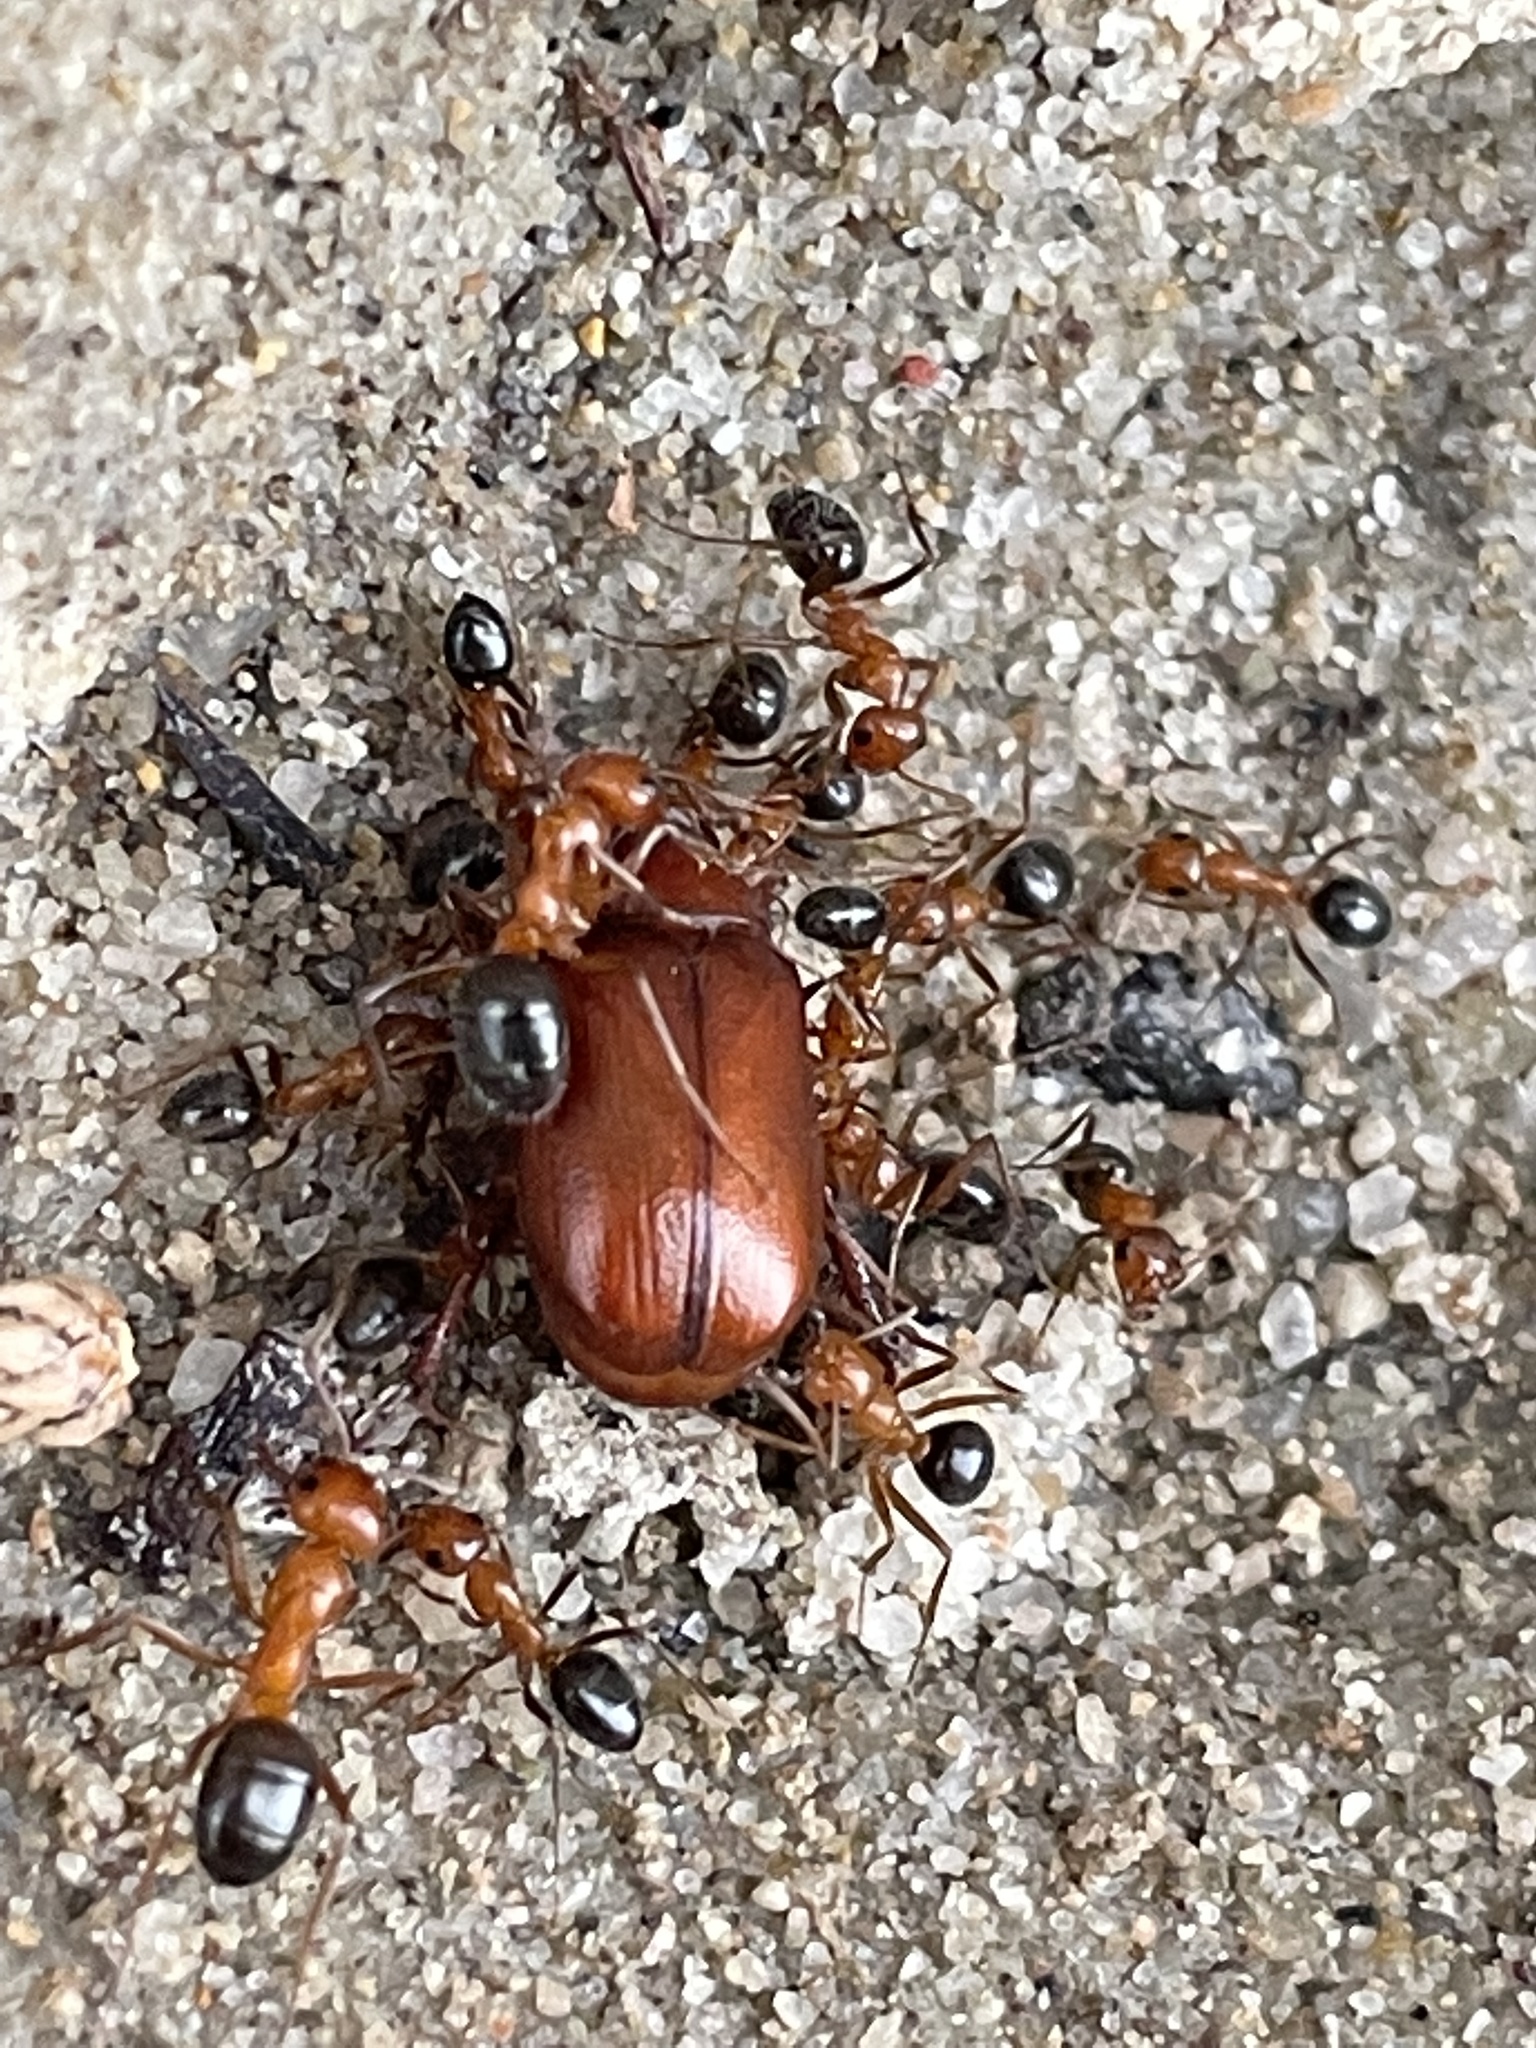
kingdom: Animalia
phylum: Arthropoda
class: Insecta
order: Hymenoptera
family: Formicidae
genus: Formica
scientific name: Formica perpilosa
